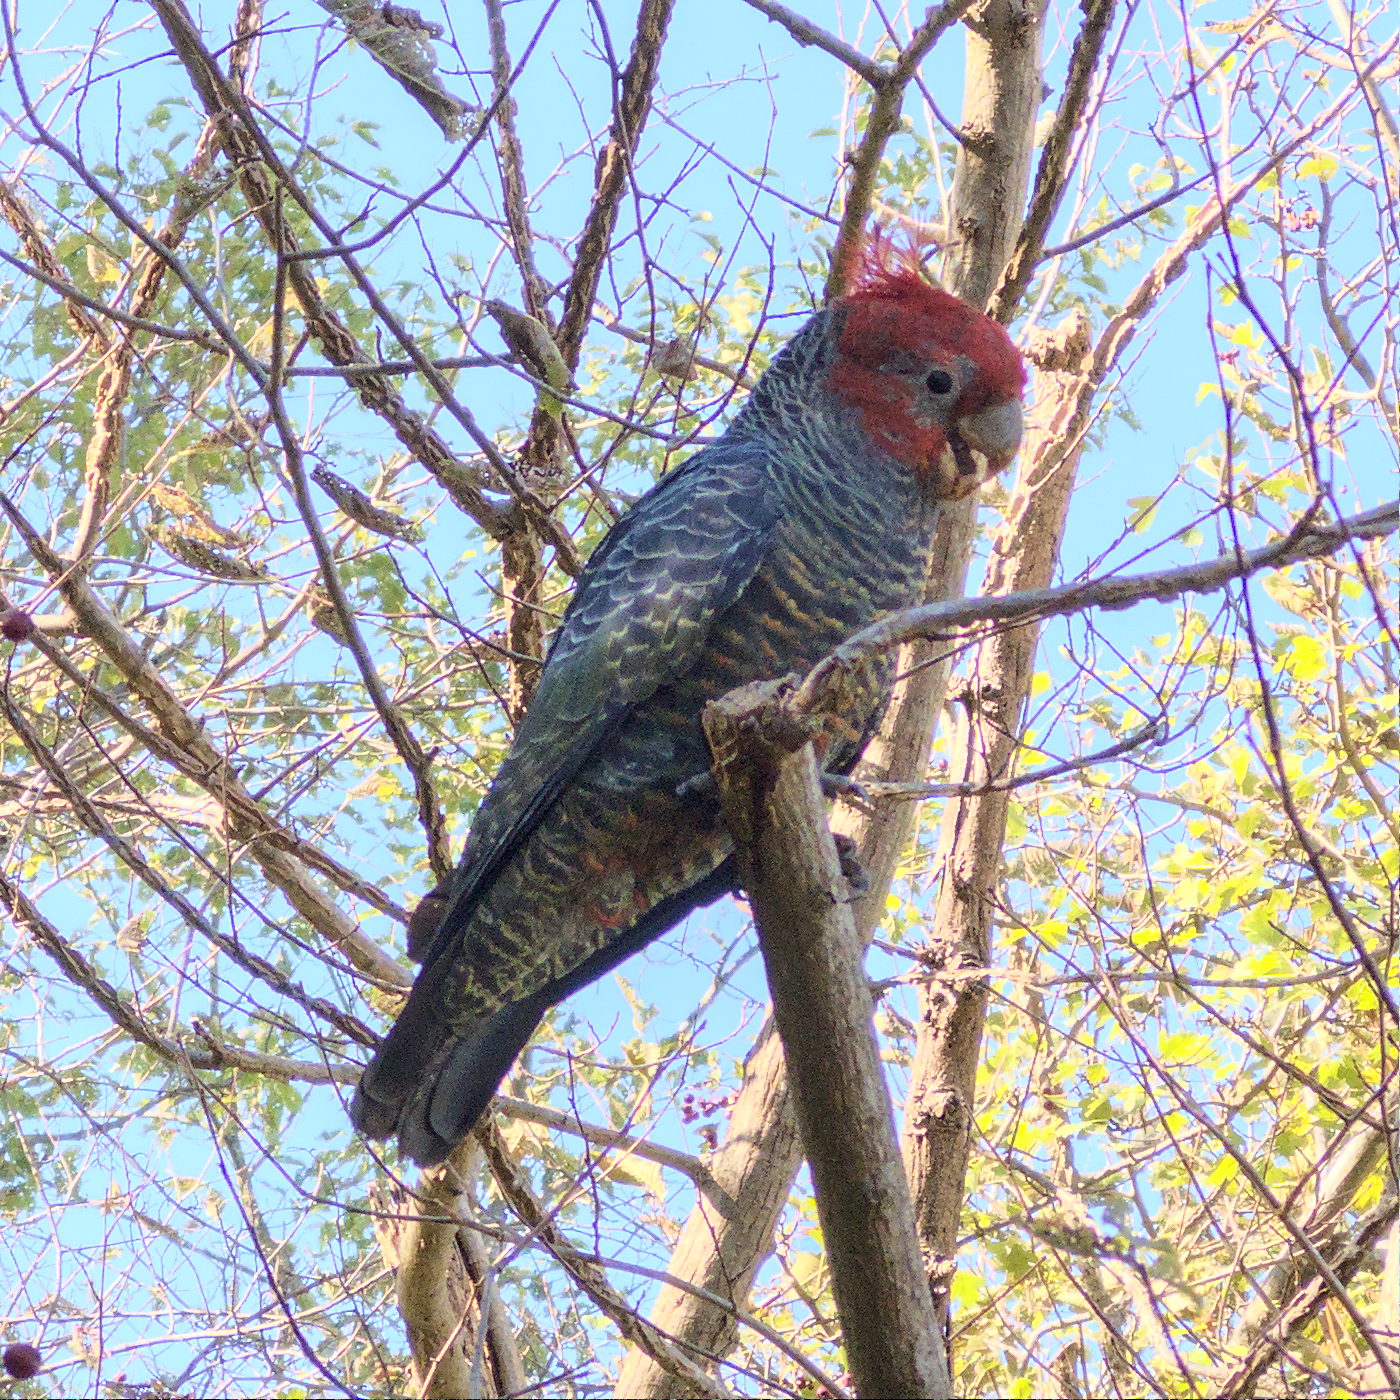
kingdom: Animalia
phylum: Chordata
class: Aves
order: Psittaciformes
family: Psittacidae
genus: Callocephalon
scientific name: Callocephalon fimbriatum
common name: Gang-gang cockatoo
